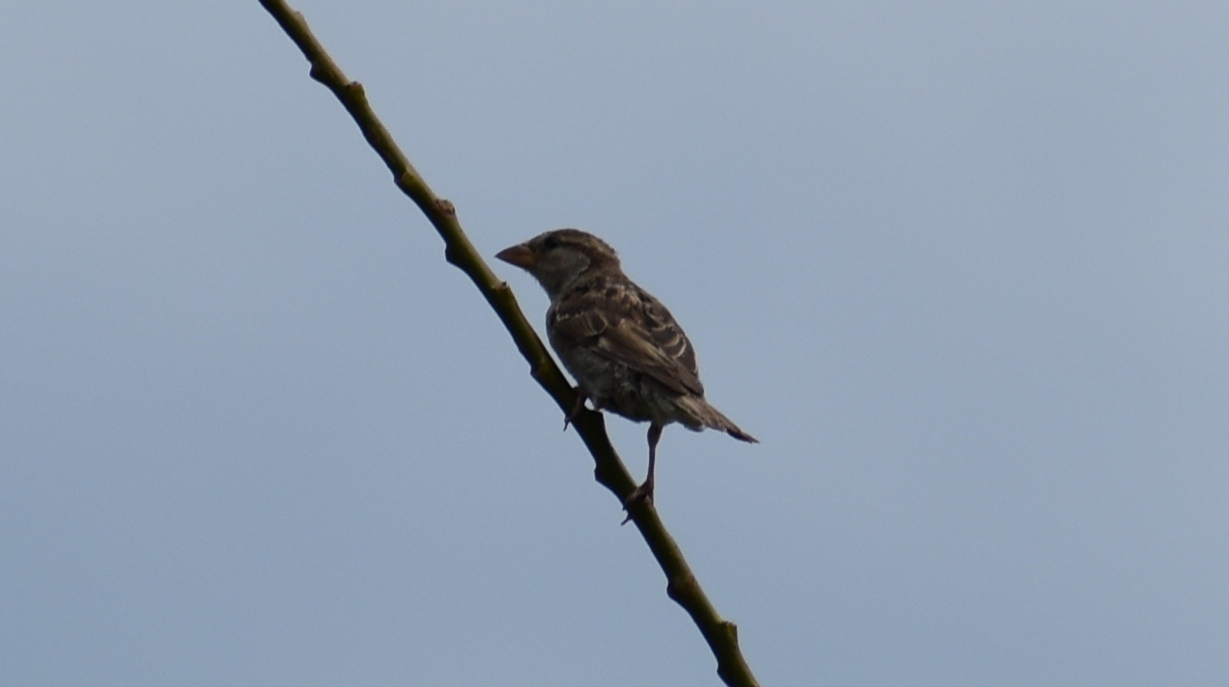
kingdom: Animalia
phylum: Chordata
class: Aves
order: Passeriformes
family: Passeridae
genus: Passer
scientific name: Passer domesticus
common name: House sparrow
